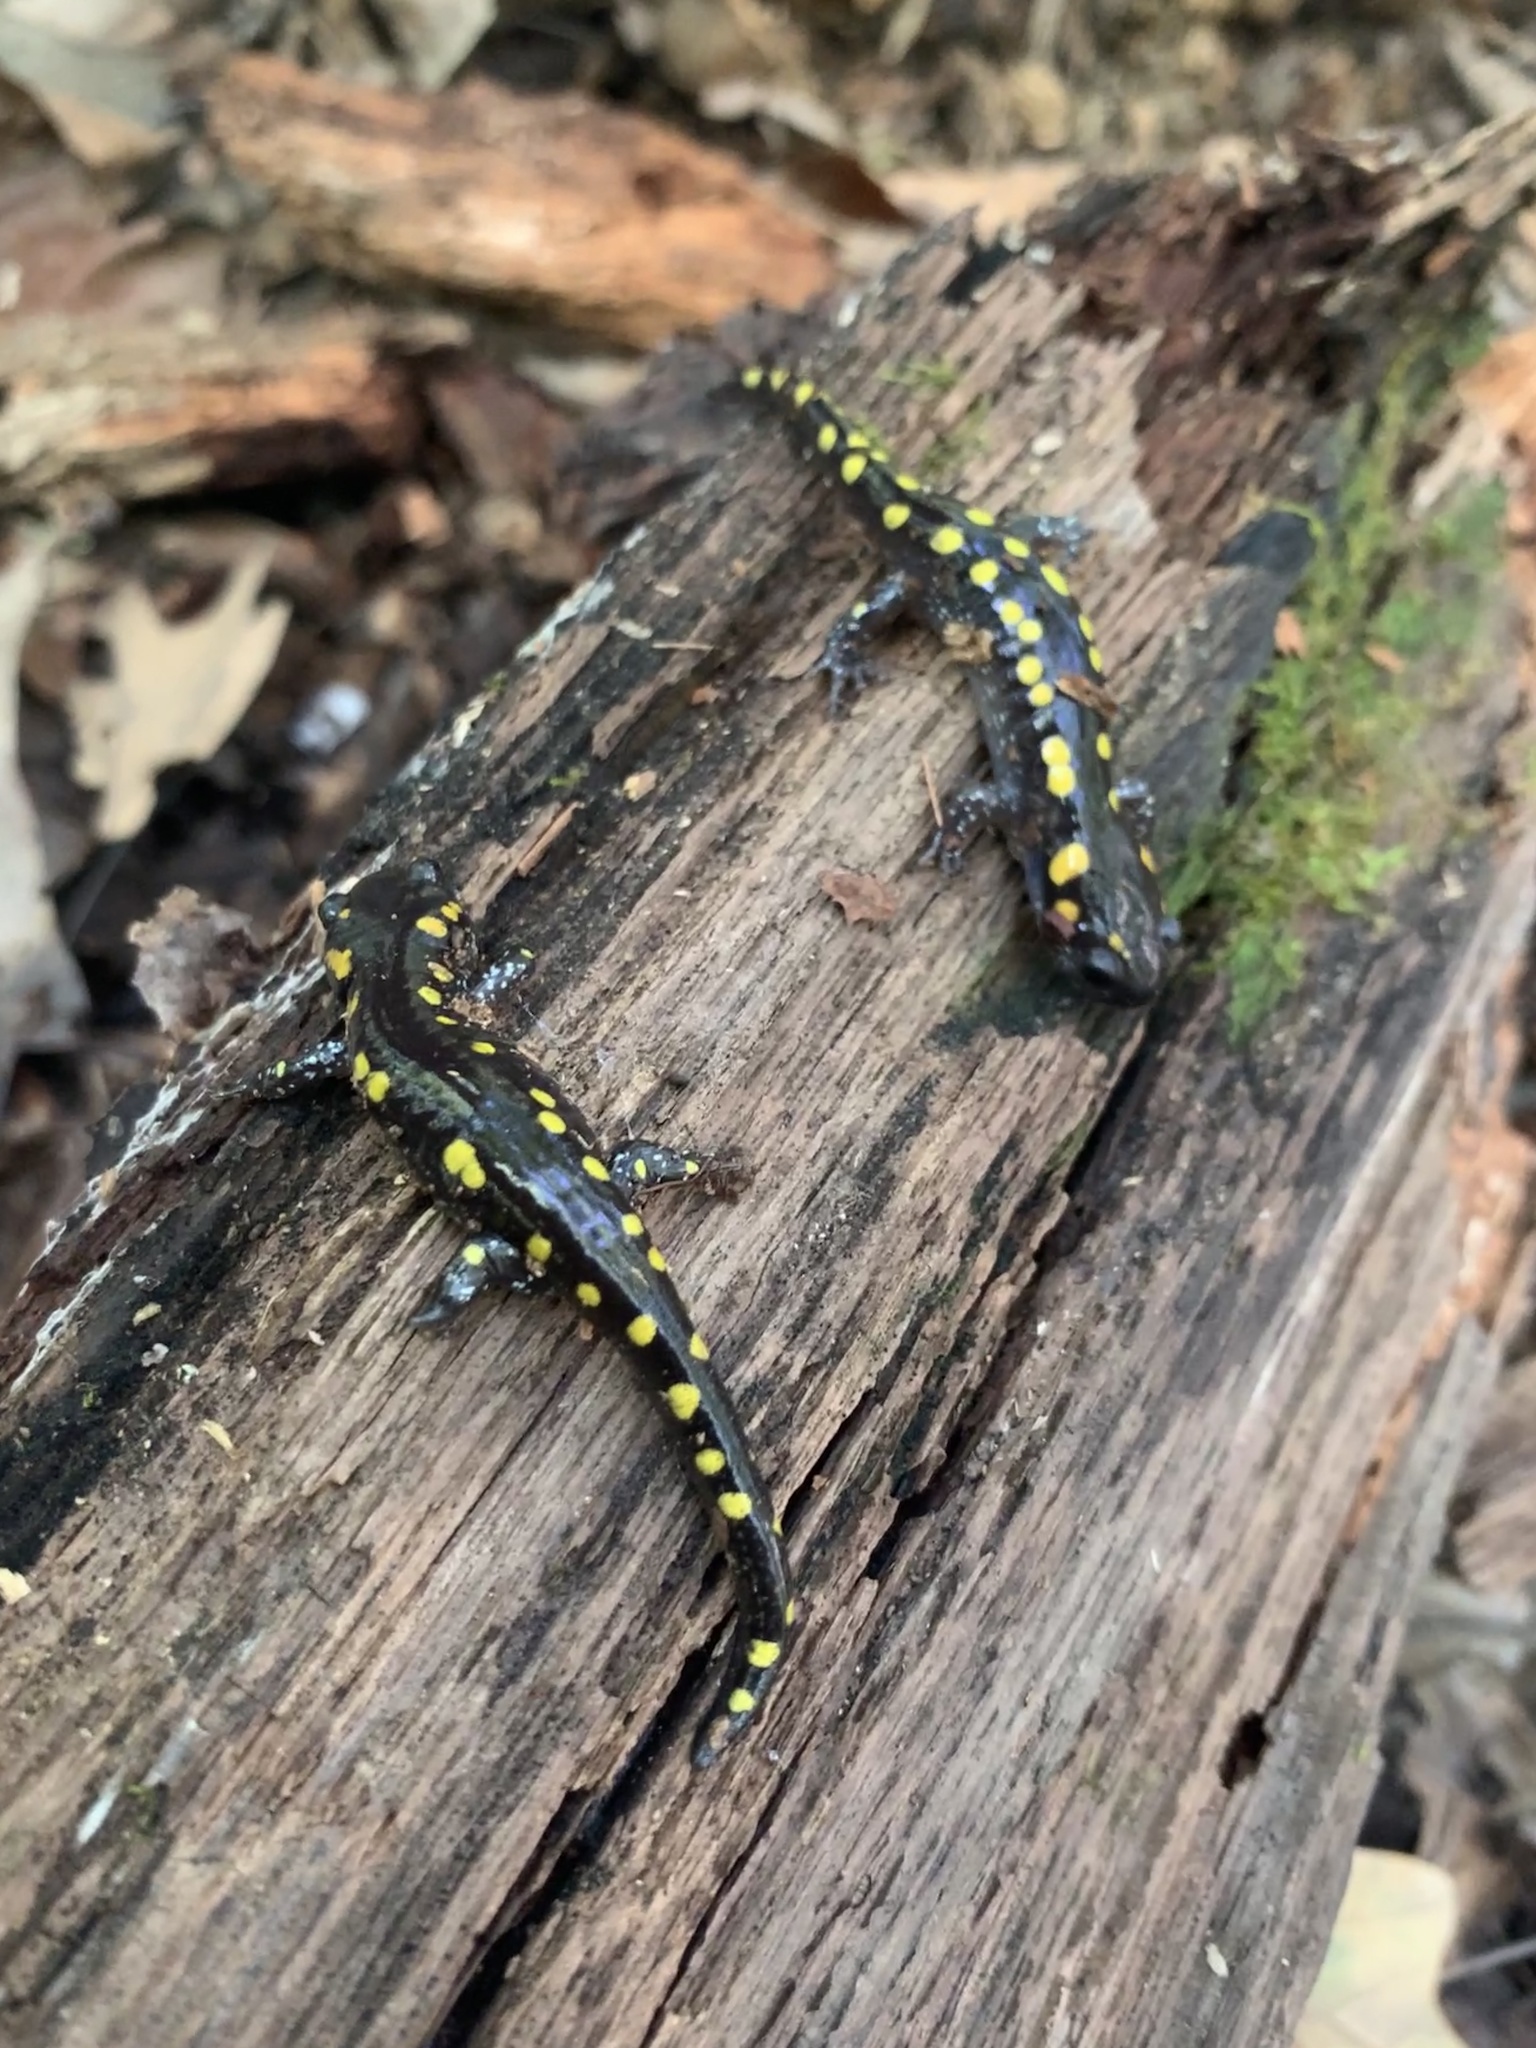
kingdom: Animalia
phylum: Chordata
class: Amphibia
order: Caudata
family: Ambystomatidae
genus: Ambystoma
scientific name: Ambystoma maculatum
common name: Spotted salamander
